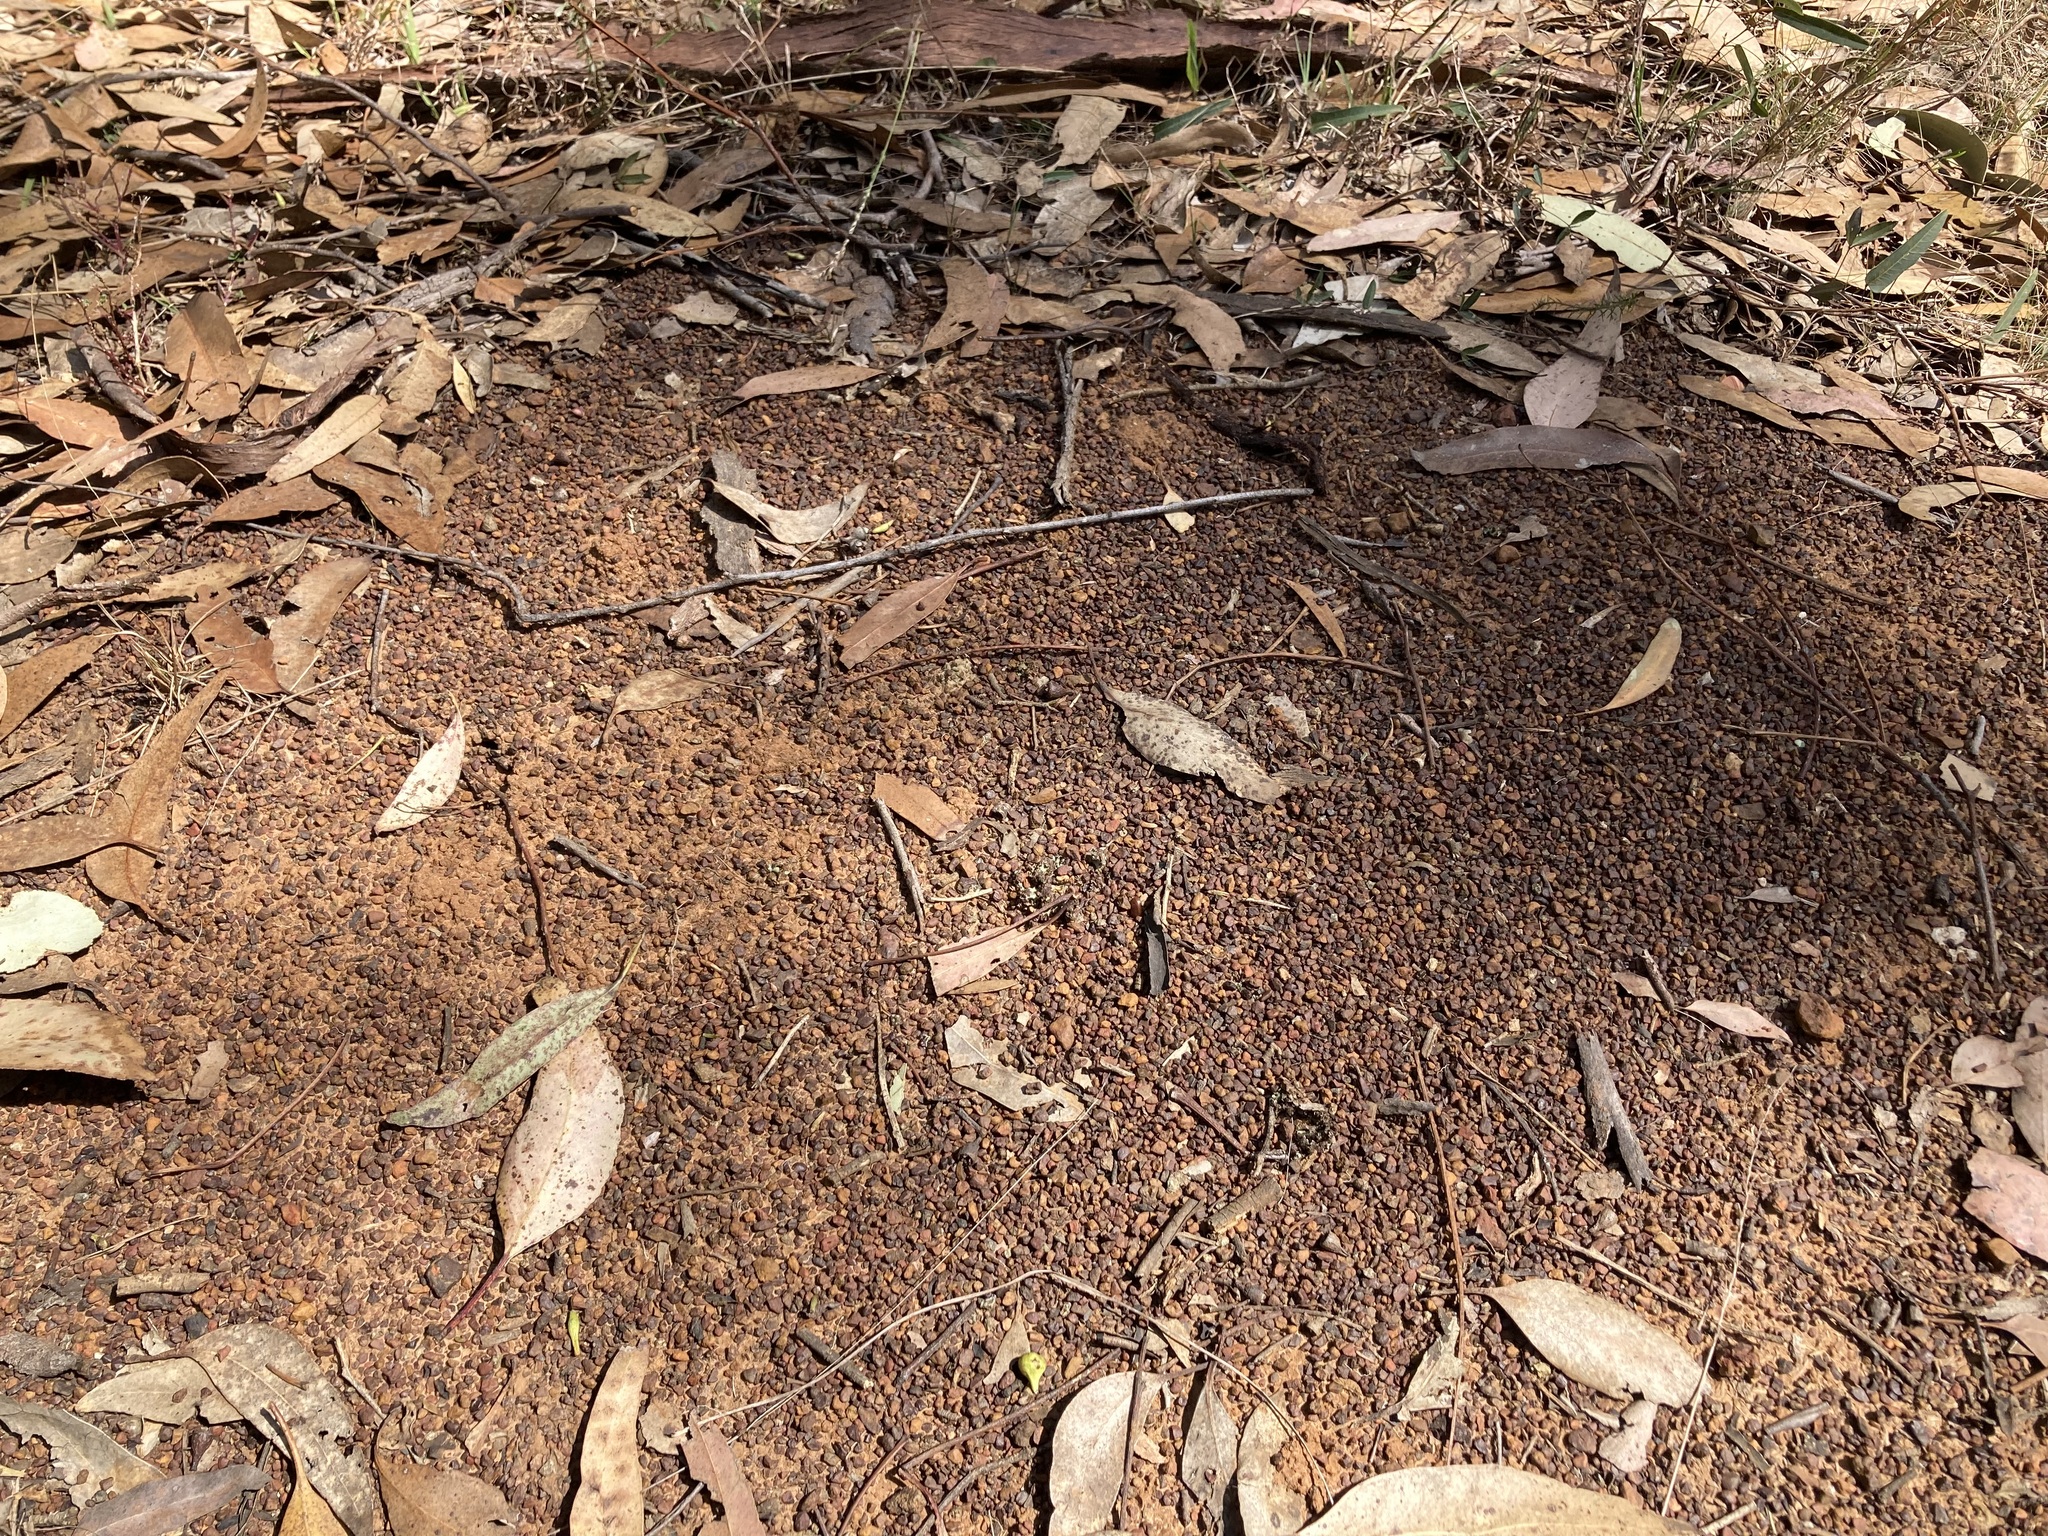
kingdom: Animalia
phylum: Arthropoda
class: Insecta
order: Hymenoptera
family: Formicidae
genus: Iridomyrmex
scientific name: Iridomyrmex purpureus
